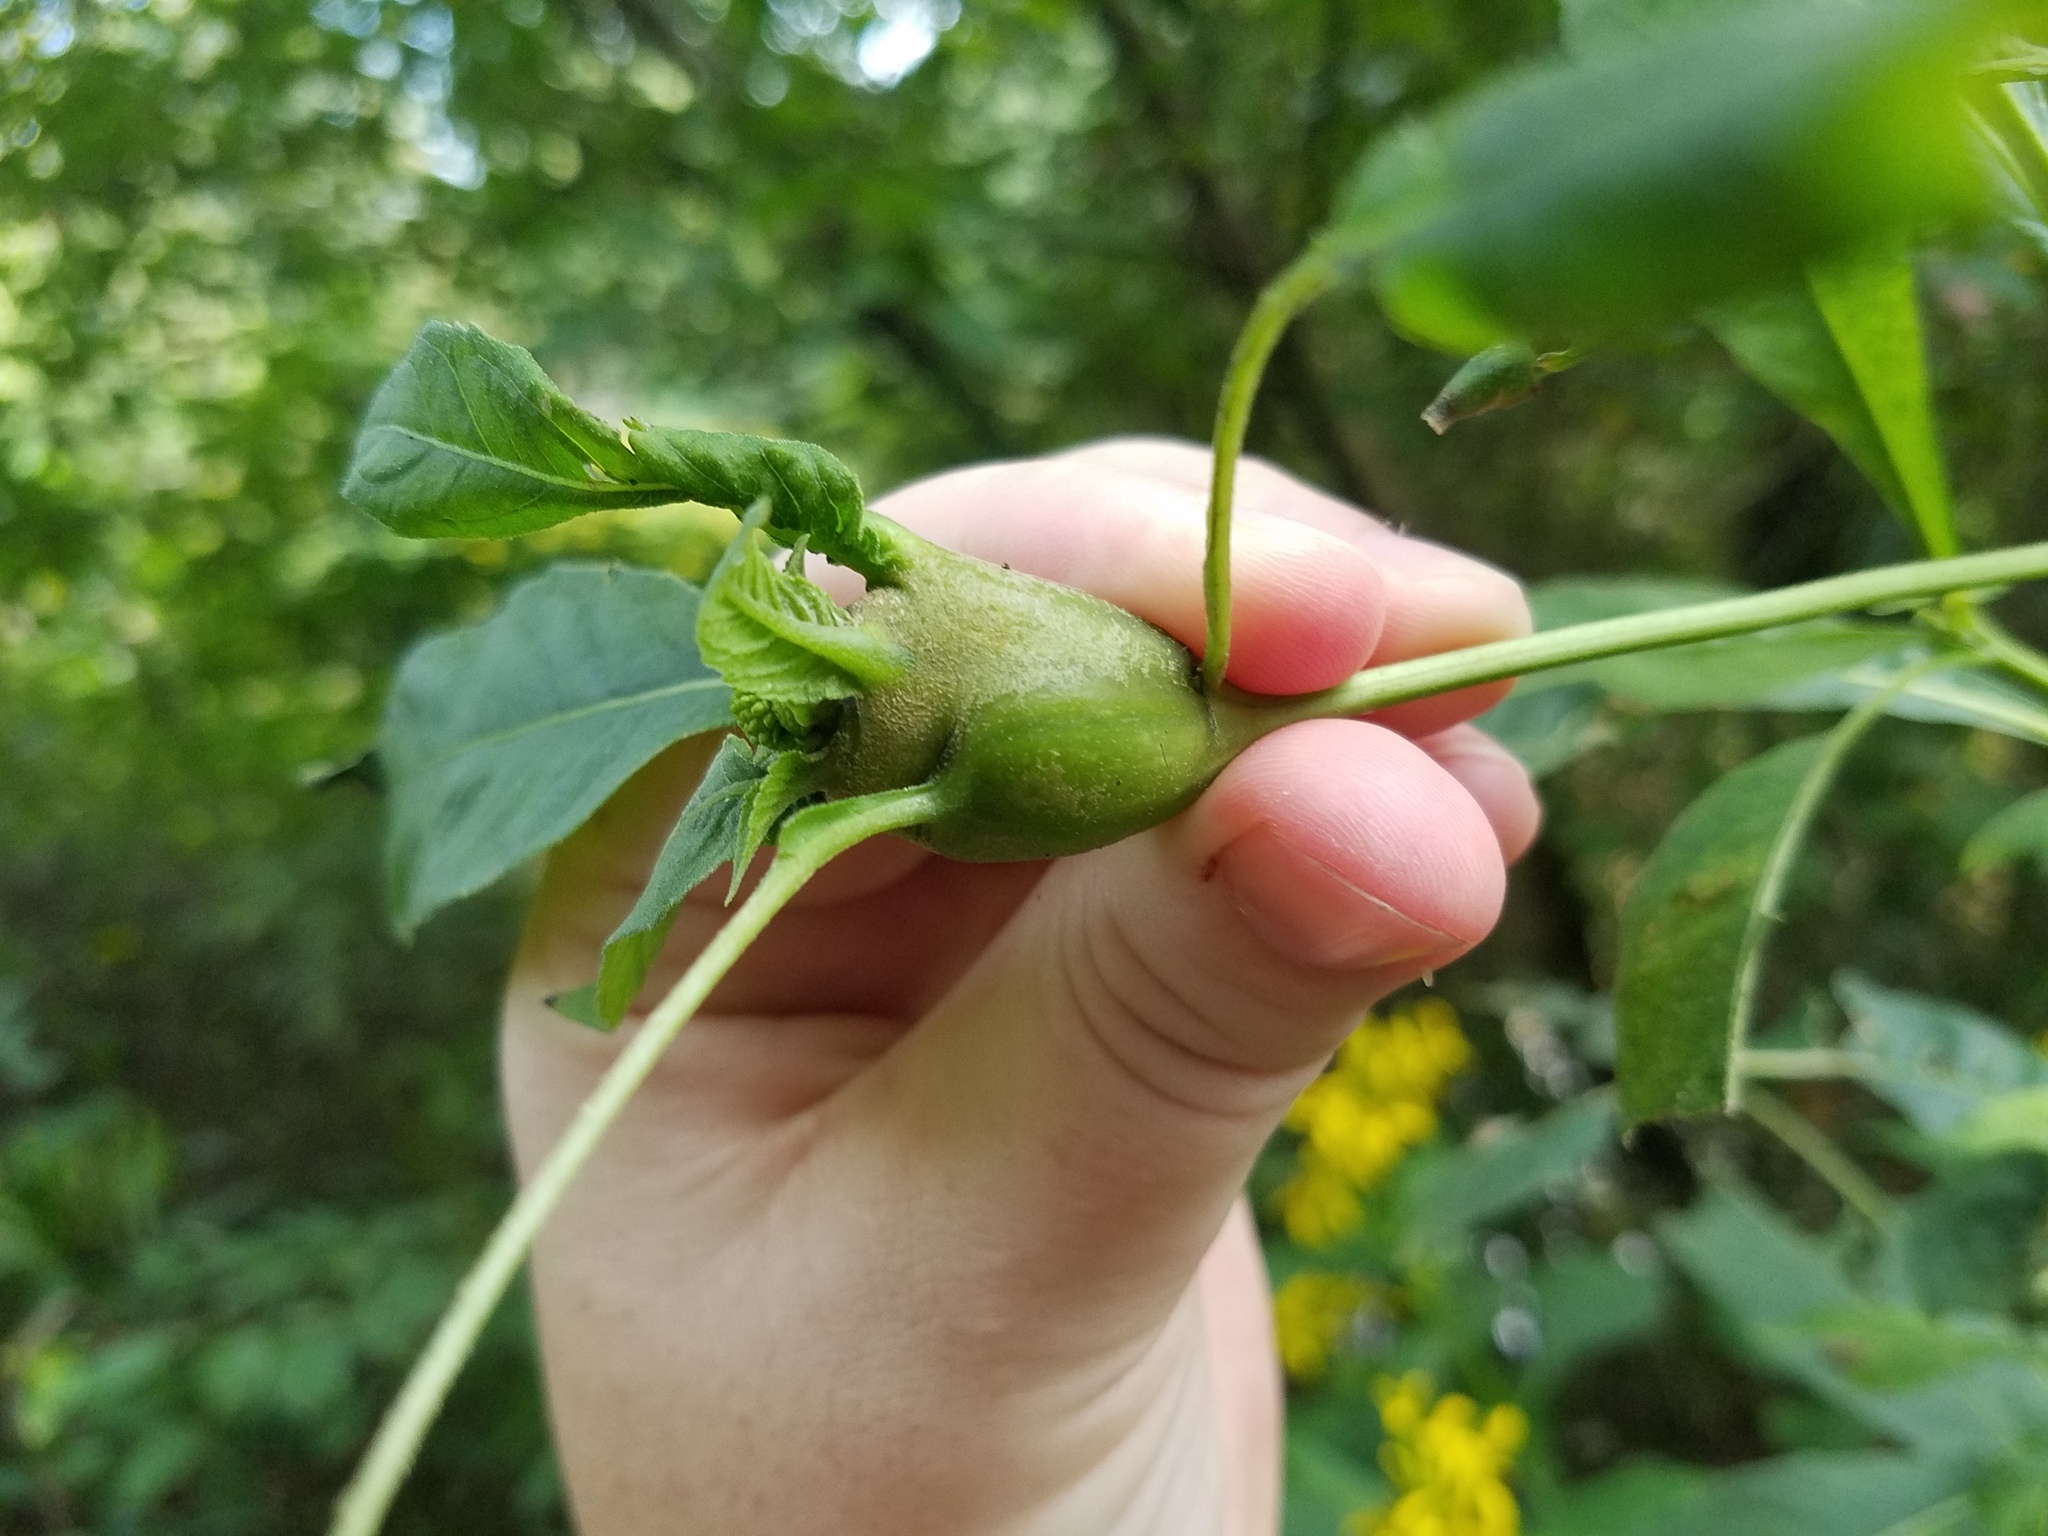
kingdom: Animalia
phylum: Arthropoda
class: Insecta
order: Diptera
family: Cecidomyiidae
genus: Neolasioptera
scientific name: Neolasioptera verbesinae
